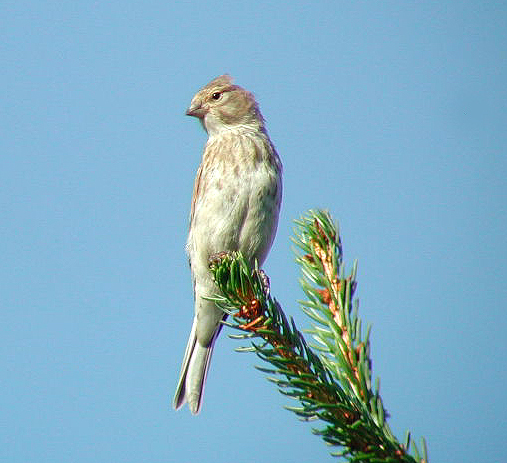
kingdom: Animalia
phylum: Chordata
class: Aves
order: Passeriformes
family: Fringillidae
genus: Linaria
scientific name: Linaria cannabina
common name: Common linnet
